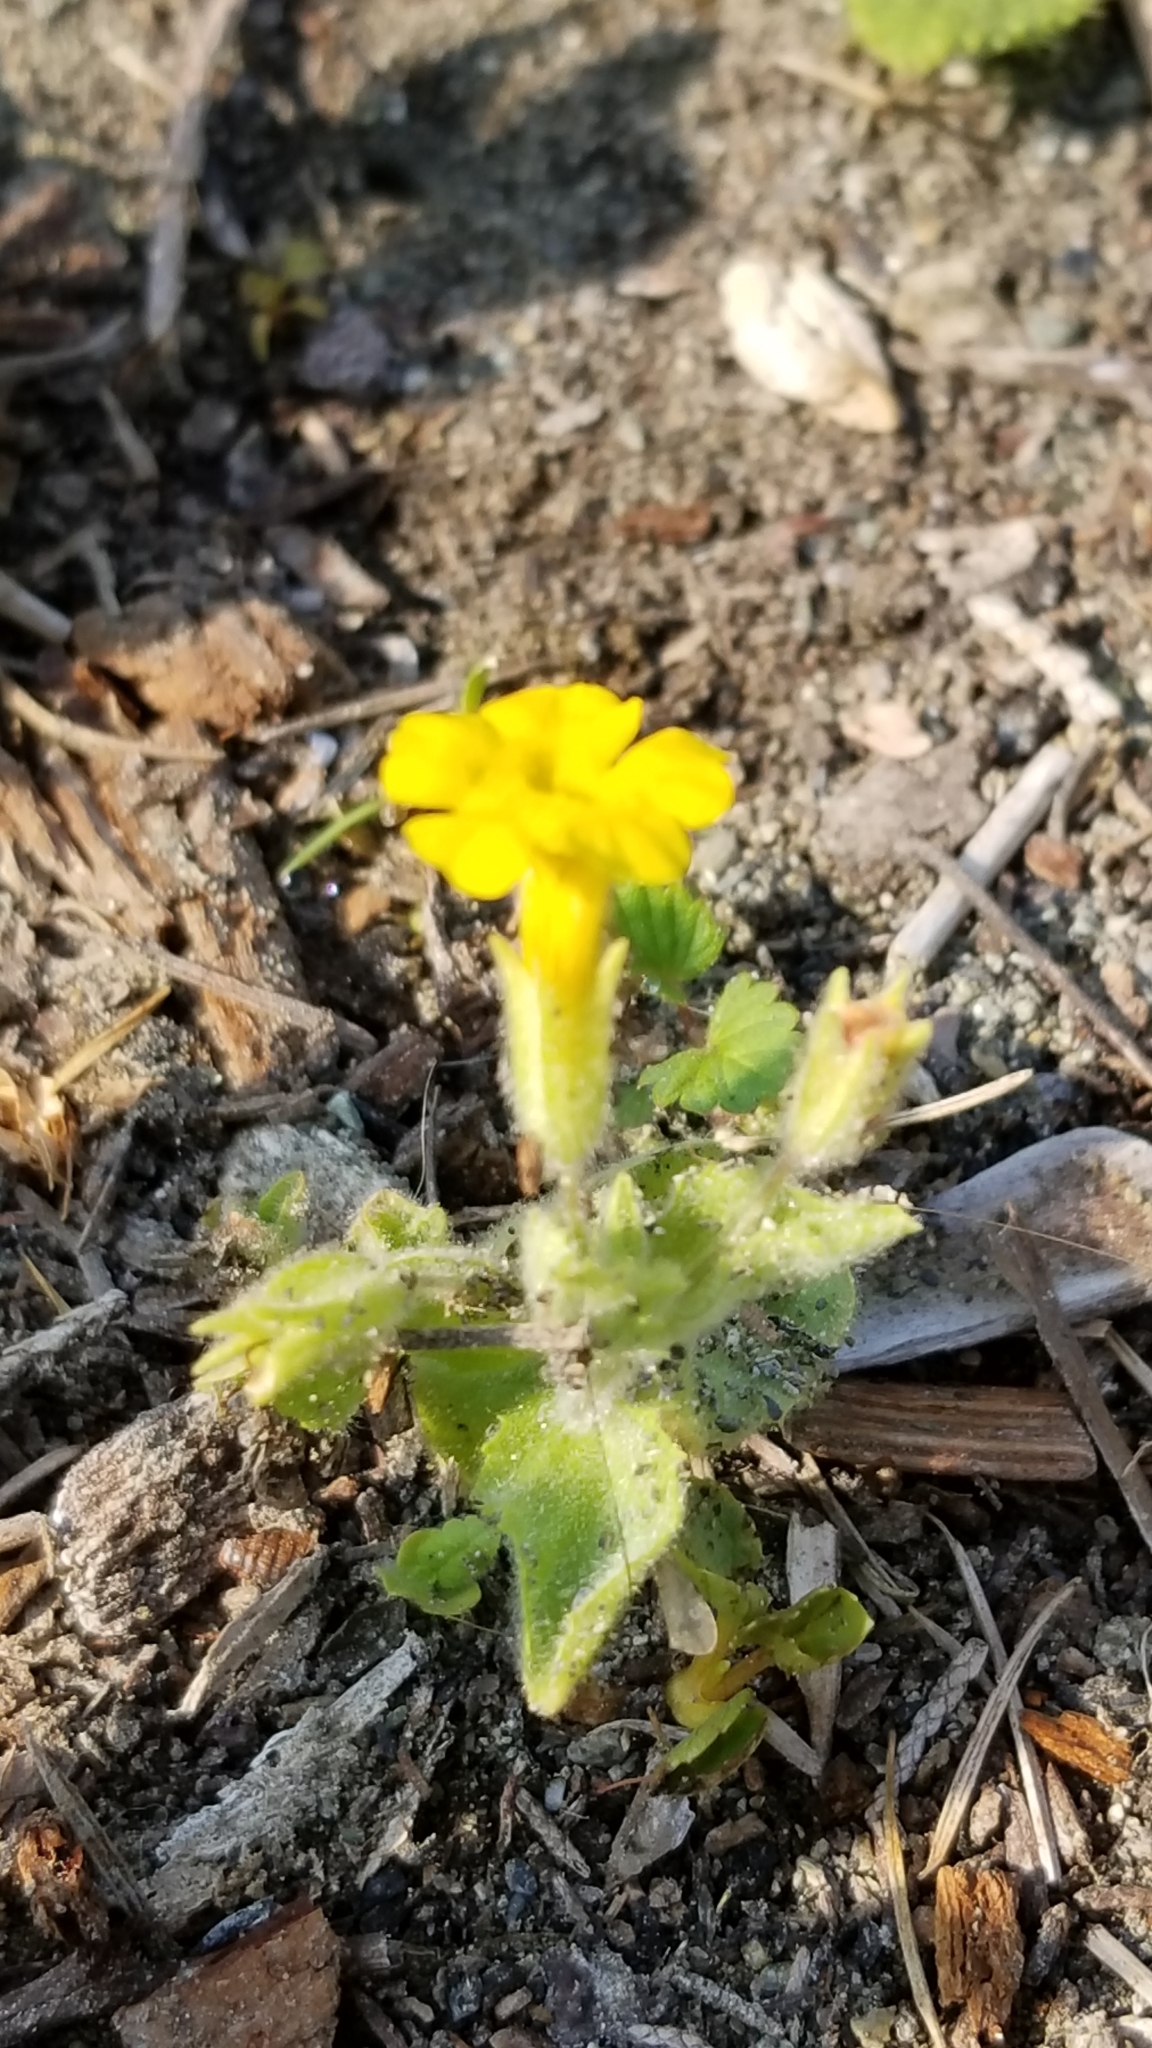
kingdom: Plantae
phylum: Tracheophyta
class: Magnoliopsida
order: Lamiales
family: Phrymaceae
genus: Erythranthe
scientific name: Erythranthe moschata
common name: Muskflower
